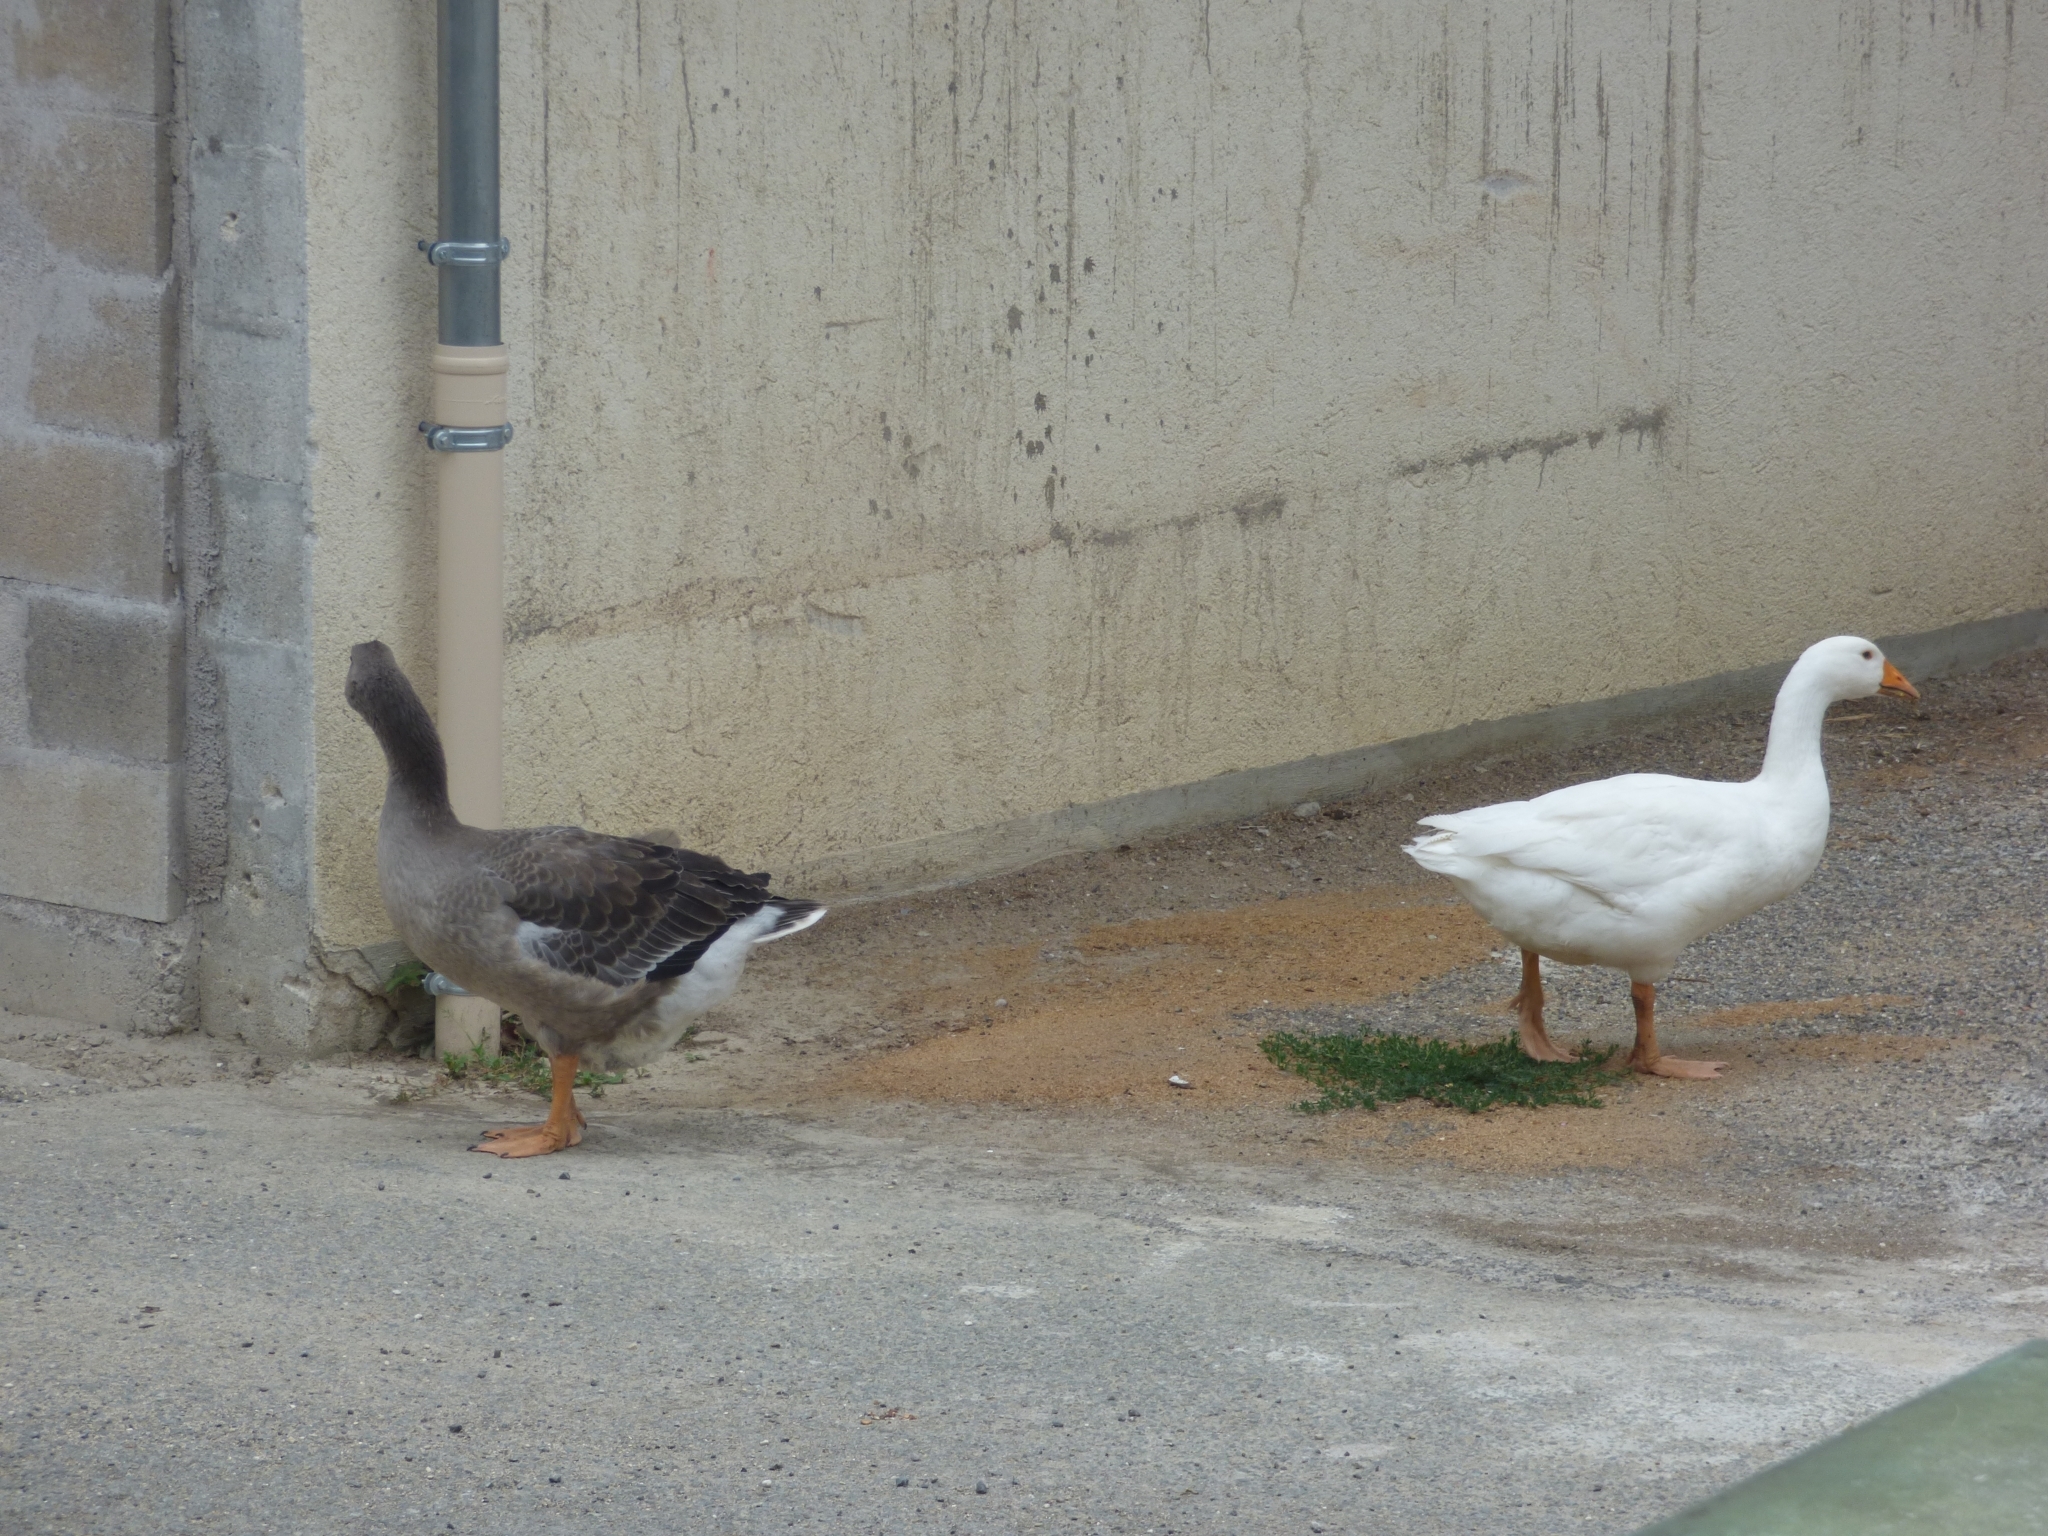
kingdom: Animalia
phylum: Chordata
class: Aves
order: Anseriformes
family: Anatidae
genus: Anser
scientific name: Anser anser
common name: Greylag goose
